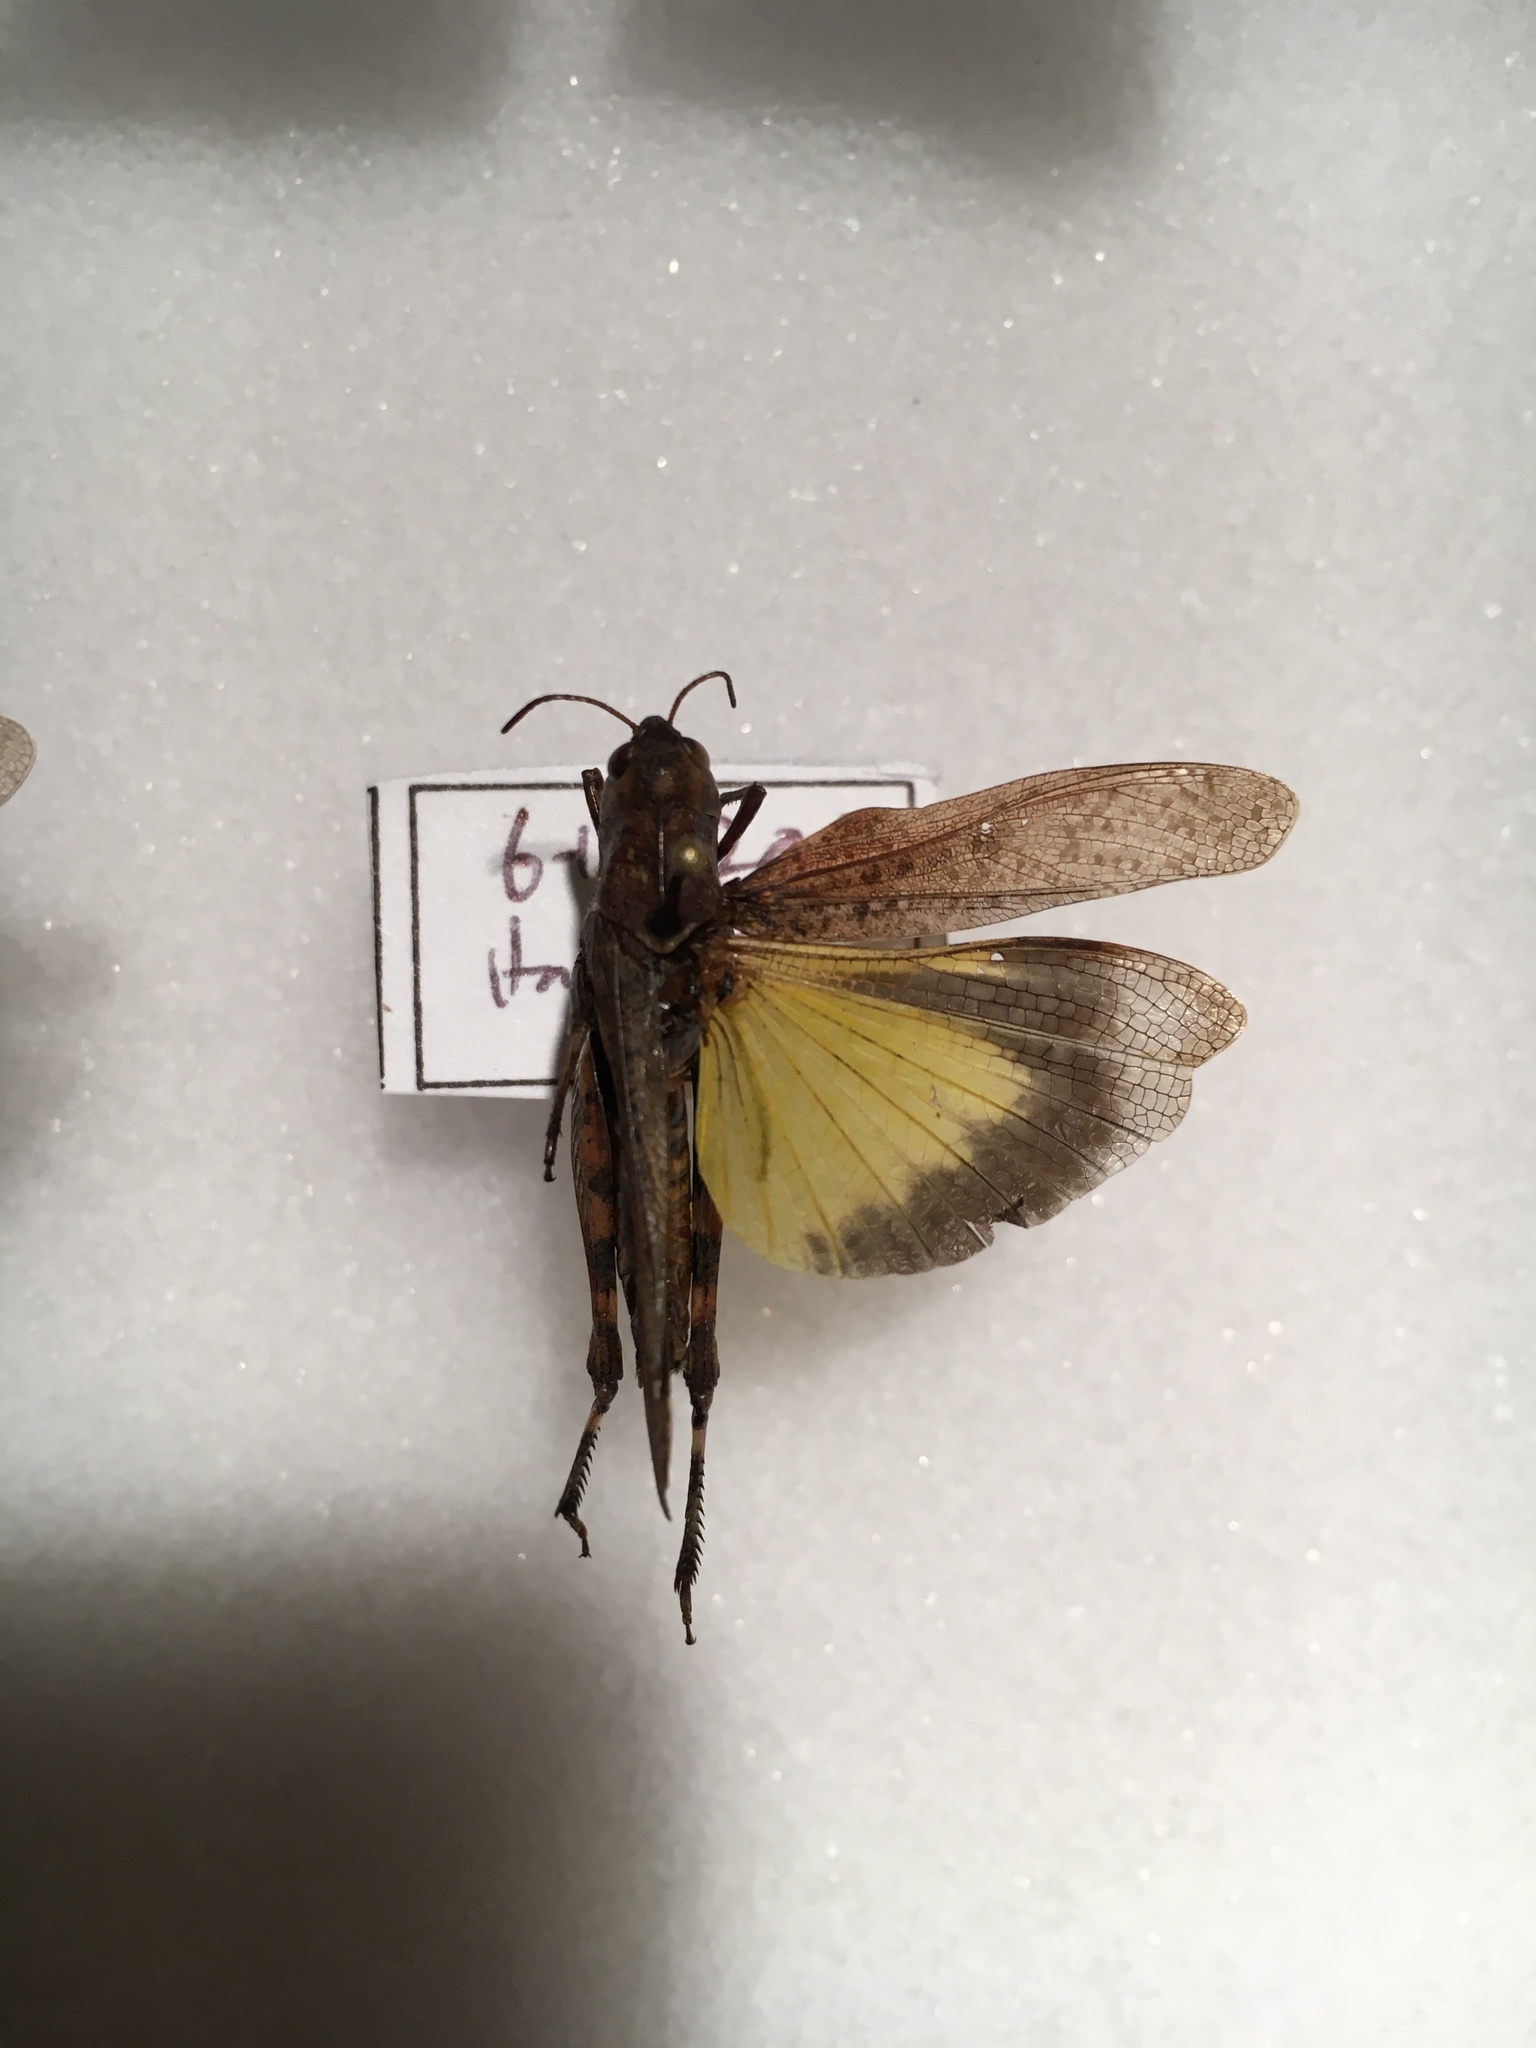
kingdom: Animalia
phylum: Arthropoda
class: Insecta
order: Orthoptera
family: Acrididae
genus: Arphia
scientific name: Arphia sulphurea
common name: Spring yellow-winged locust
